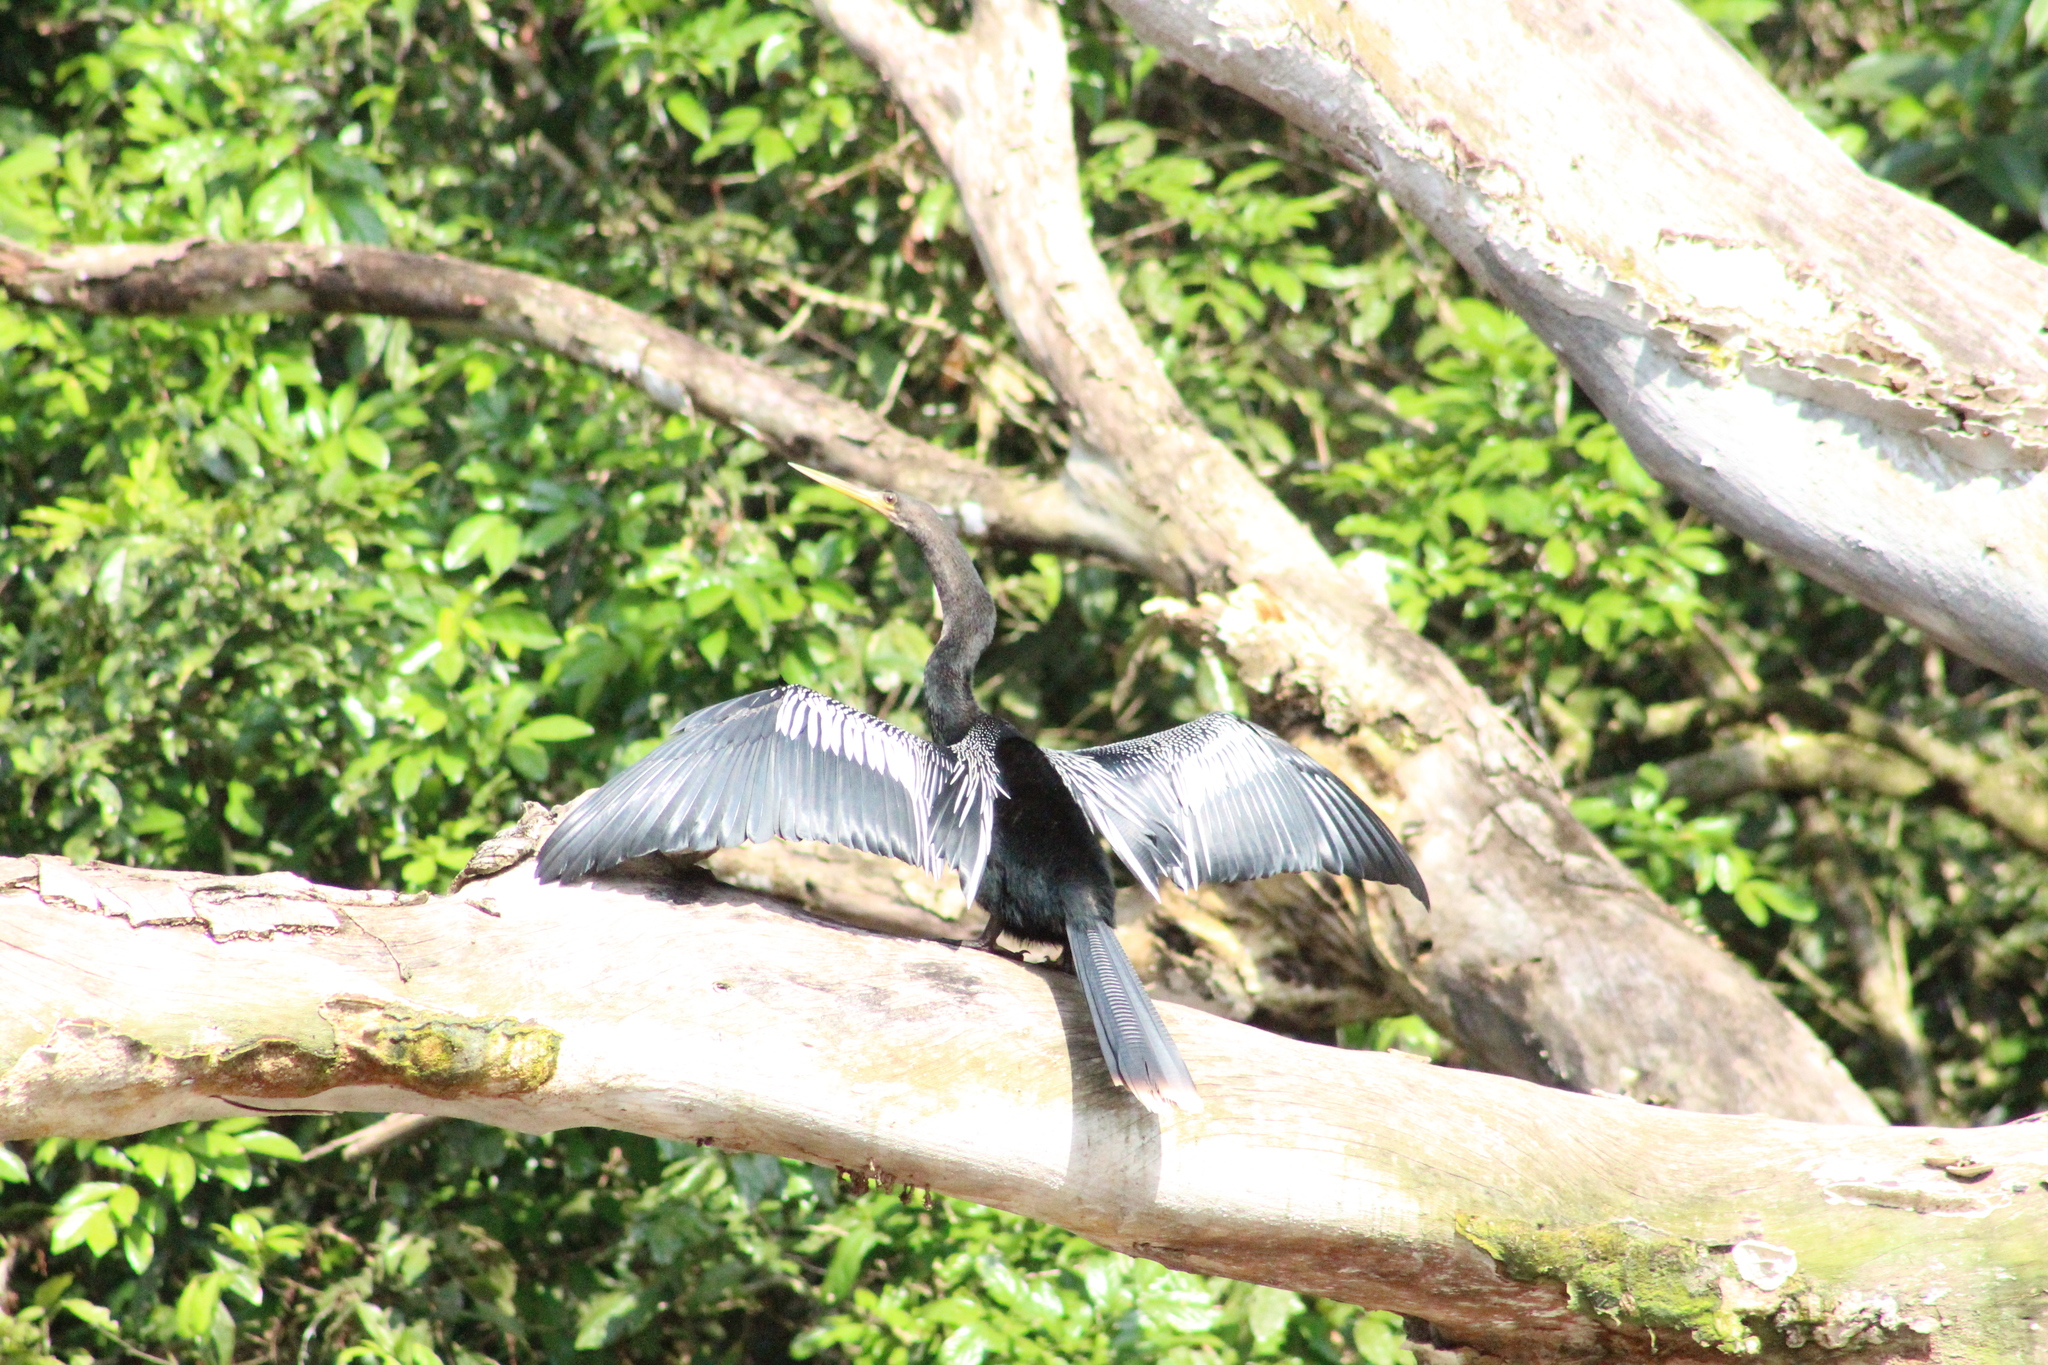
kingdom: Animalia
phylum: Chordata
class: Aves
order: Suliformes
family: Anhingidae
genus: Anhinga
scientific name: Anhinga anhinga
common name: Anhinga
